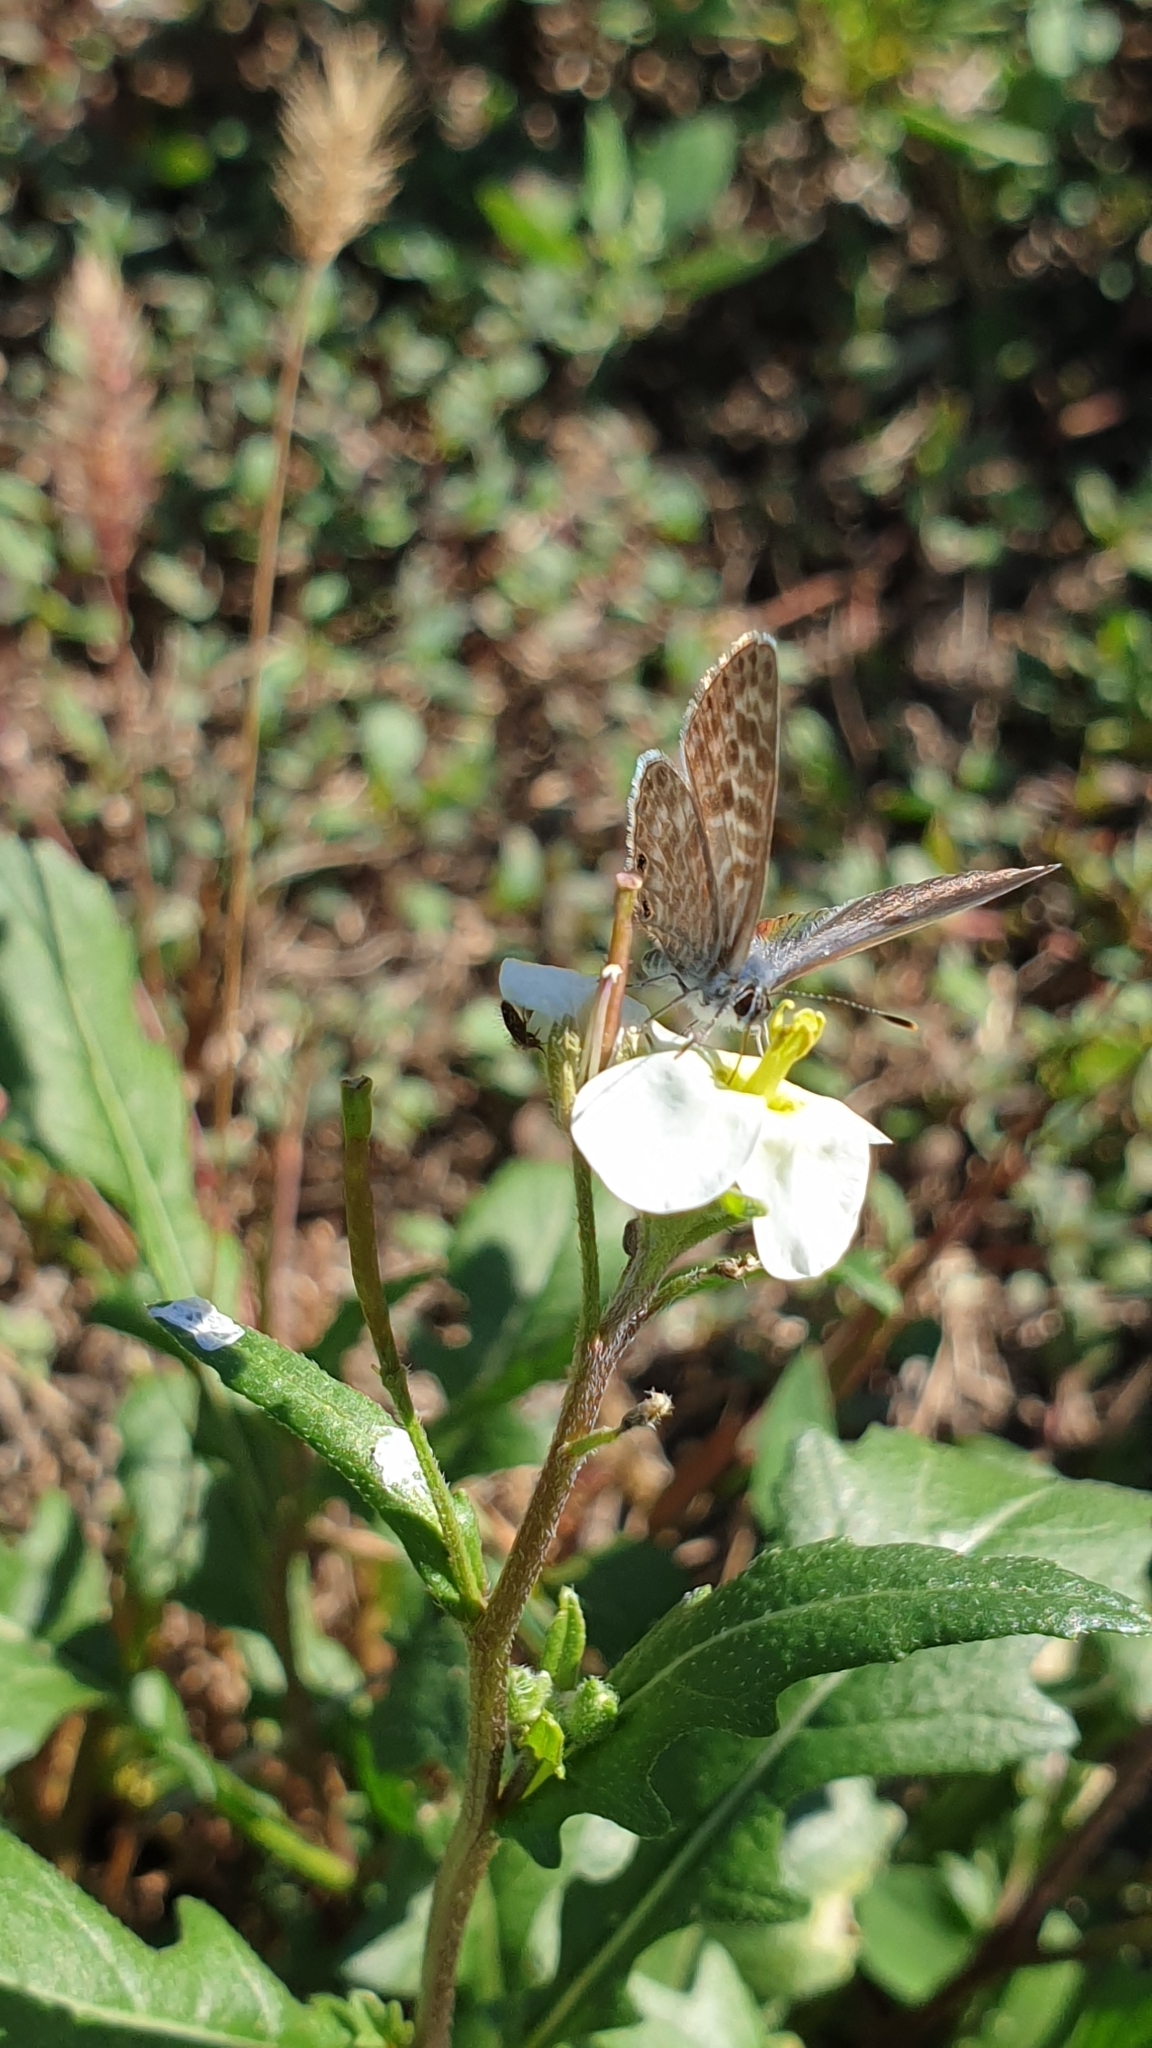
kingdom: Animalia
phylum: Arthropoda
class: Insecta
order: Lepidoptera
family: Lycaenidae
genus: Leptotes
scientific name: Leptotes pirithous
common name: Lang's short-tailed blue
